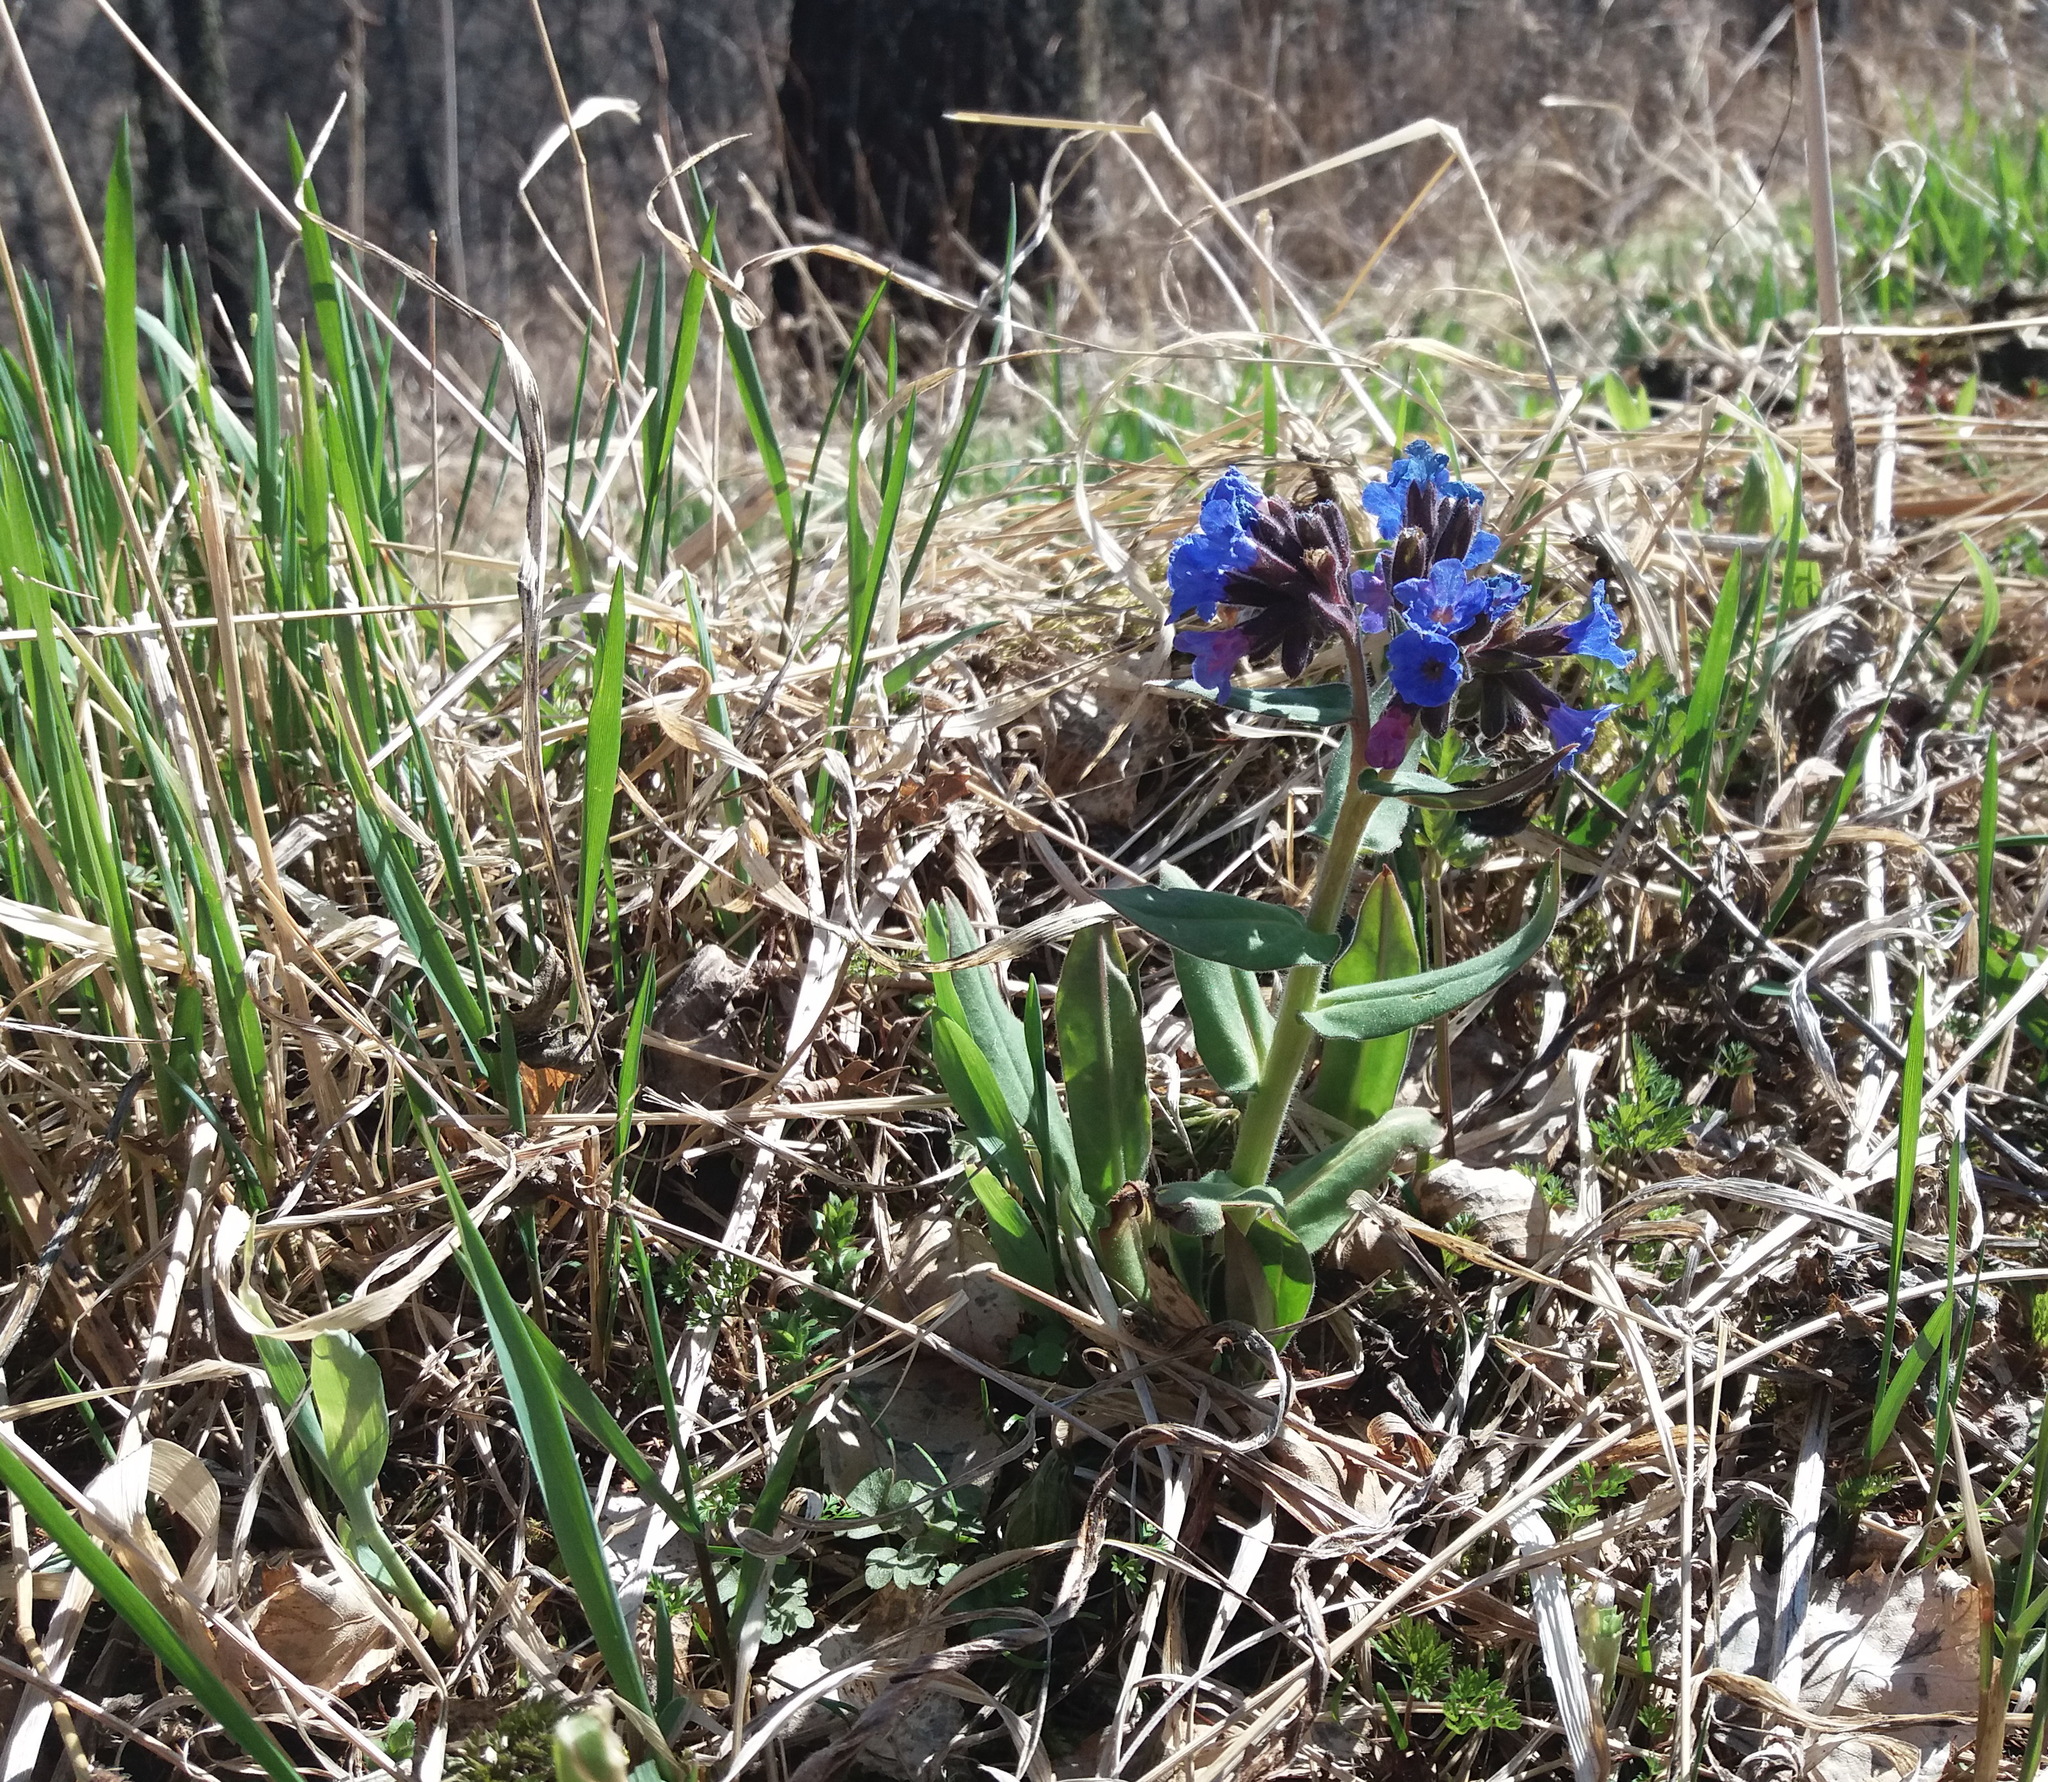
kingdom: Plantae
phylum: Tracheophyta
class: Magnoliopsida
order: Boraginales
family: Boraginaceae
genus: Pulmonaria
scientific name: Pulmonaria mollis
